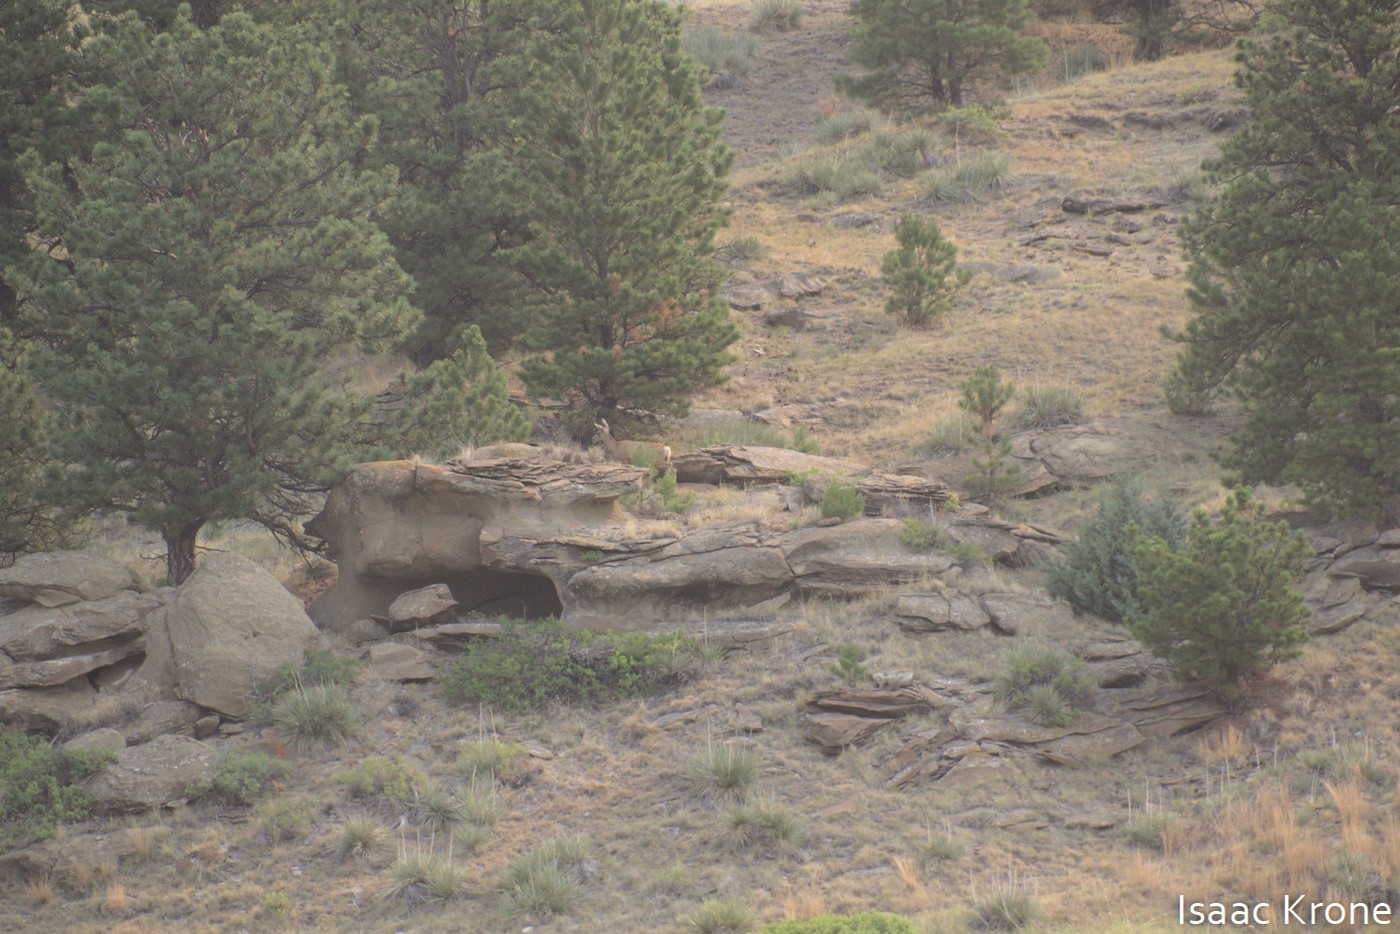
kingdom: Animalia
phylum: Chordata
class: Mammalia
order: Artiodactyla
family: Cervidae
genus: Odocoileus
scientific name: Odocoileus hemionus
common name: Mule deer
